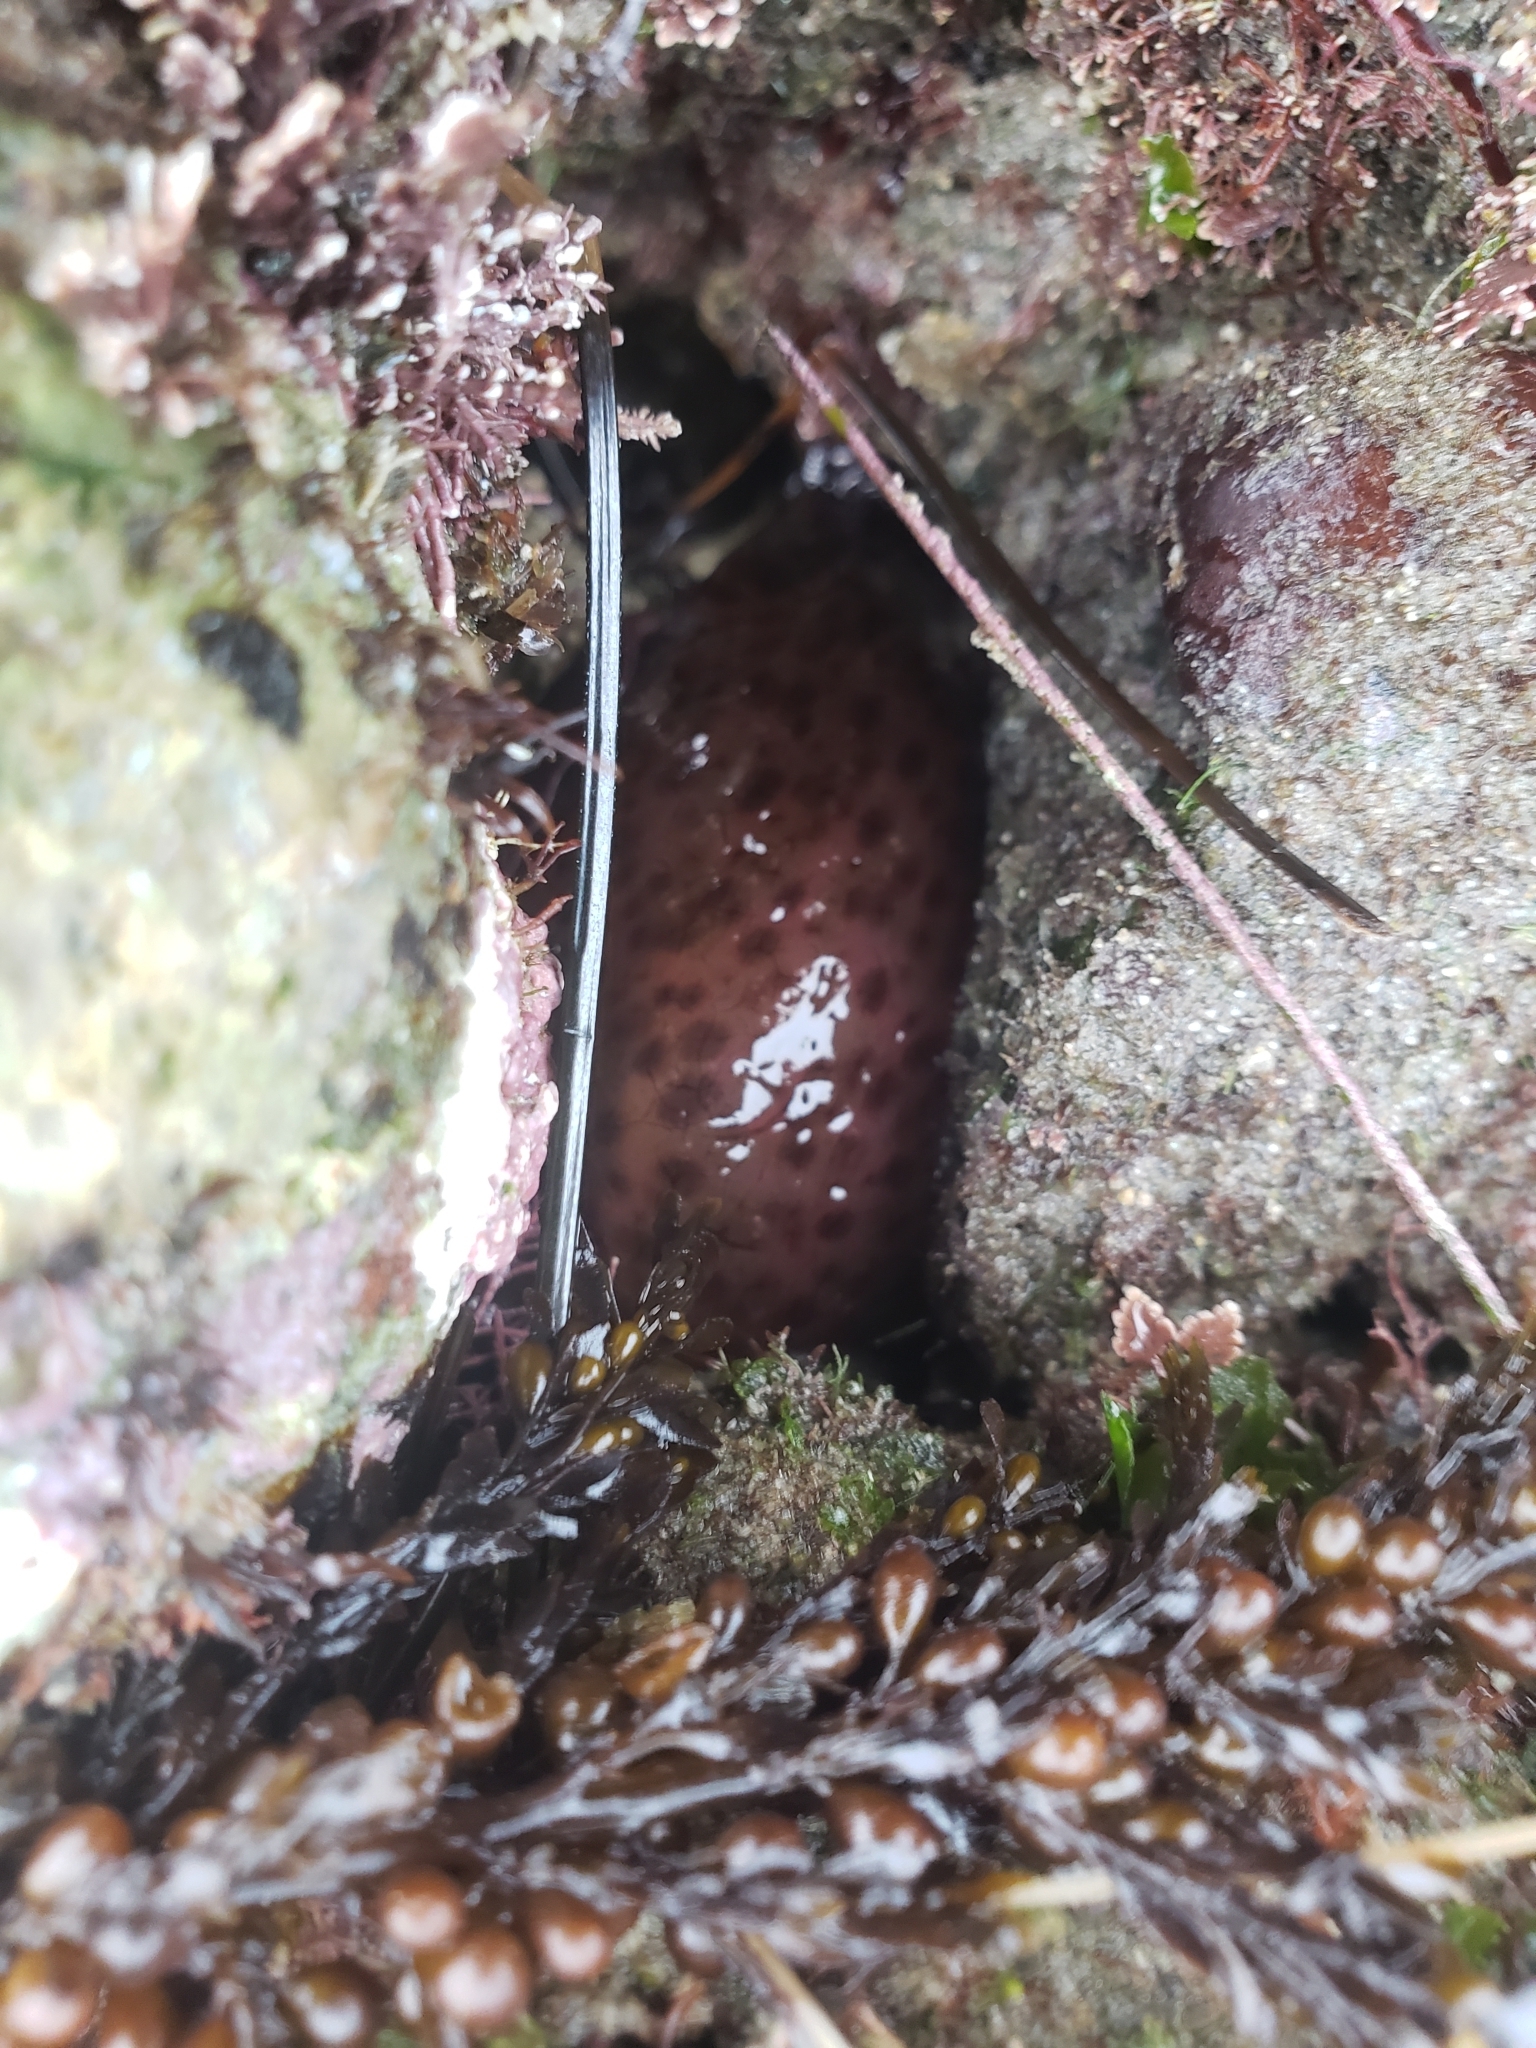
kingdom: Animalia
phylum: Mollusca
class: Gastropoda
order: Aplysiida
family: Aplysiidae
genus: Aplysia
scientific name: Aplysia californica
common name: California seahare
